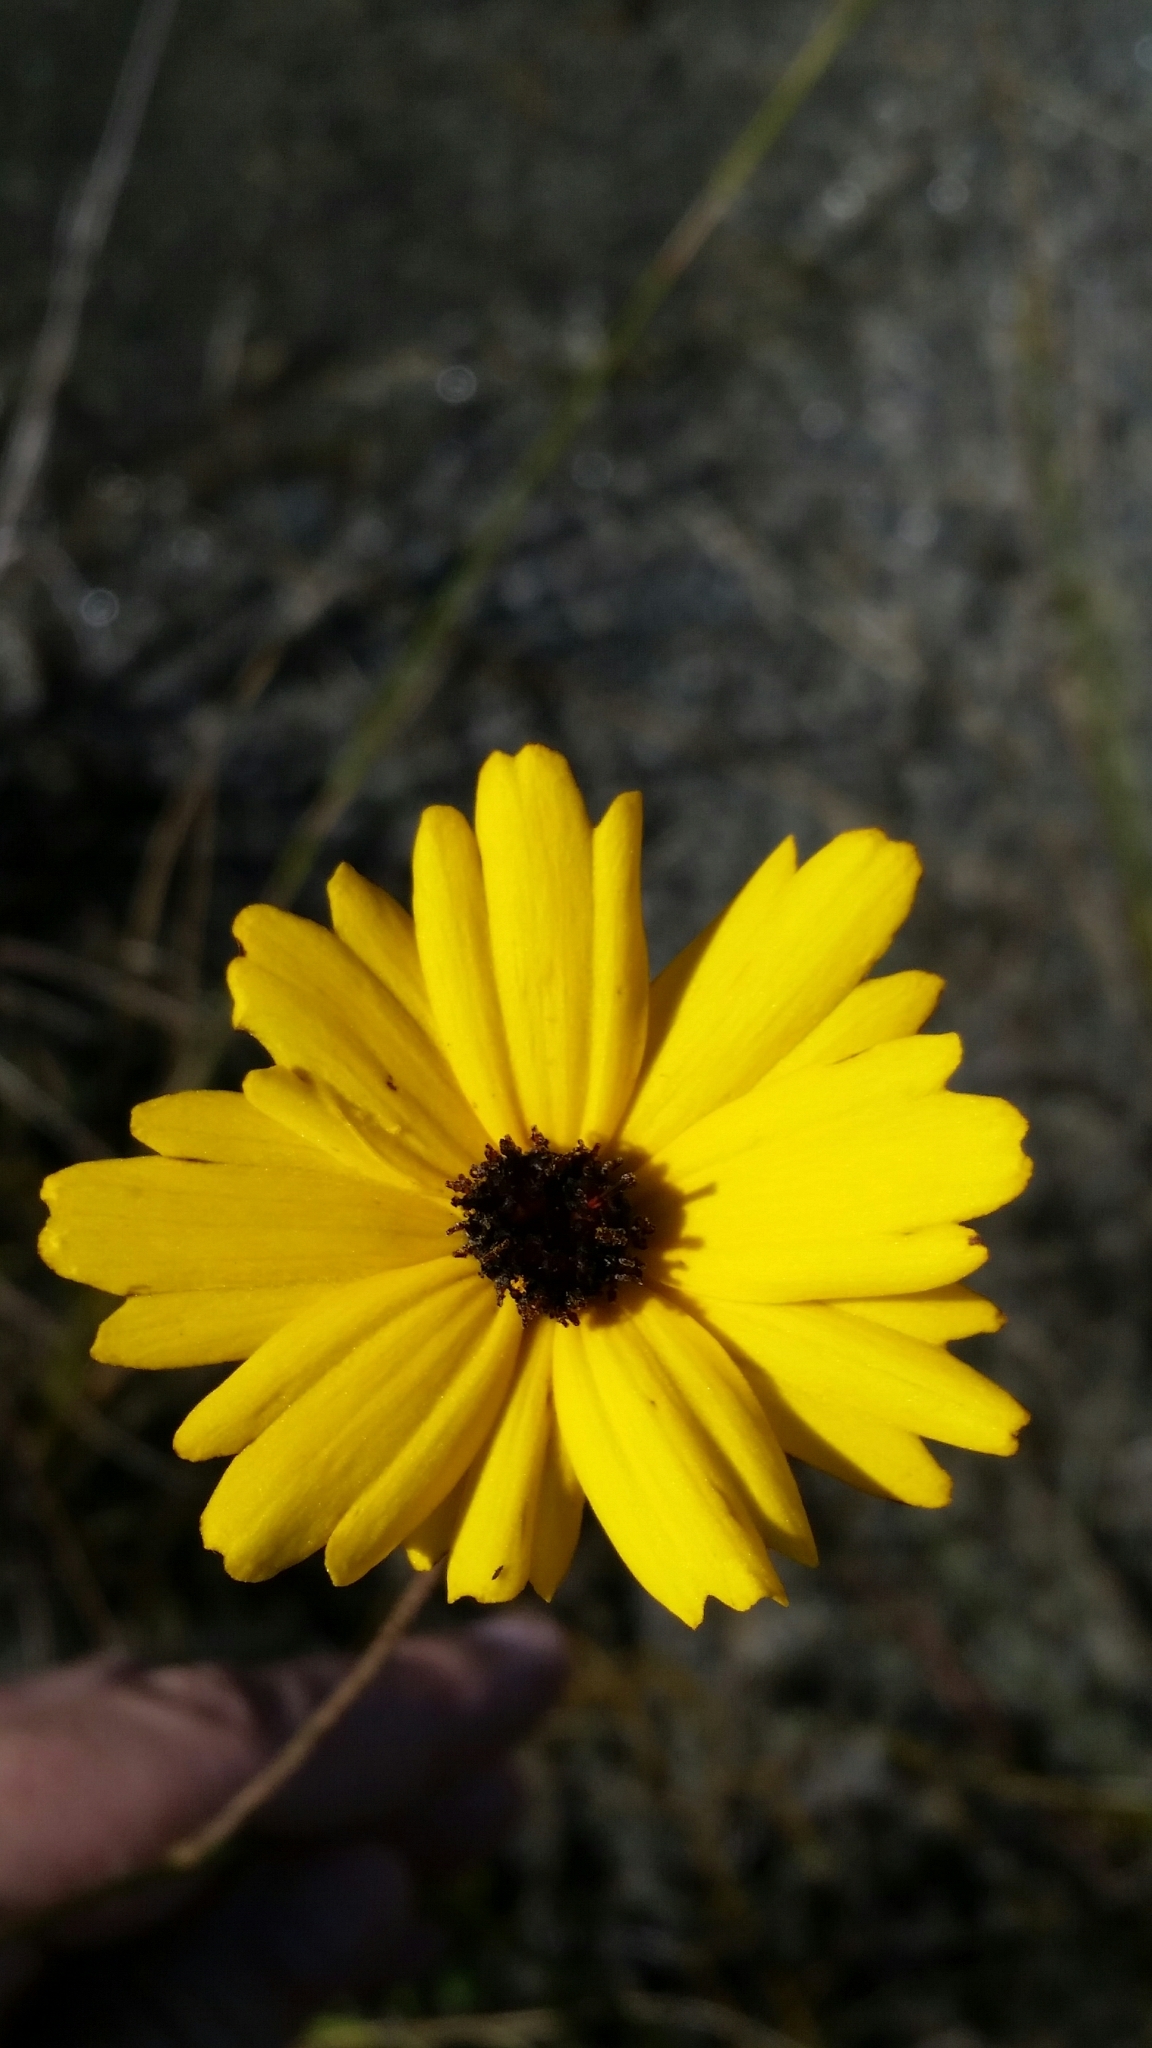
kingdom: Plantae
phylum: Tracheophyta
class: Magnoliopsida
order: Asterales
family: Asteraceae
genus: Coreopsis
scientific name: Coreopsis gladiata
